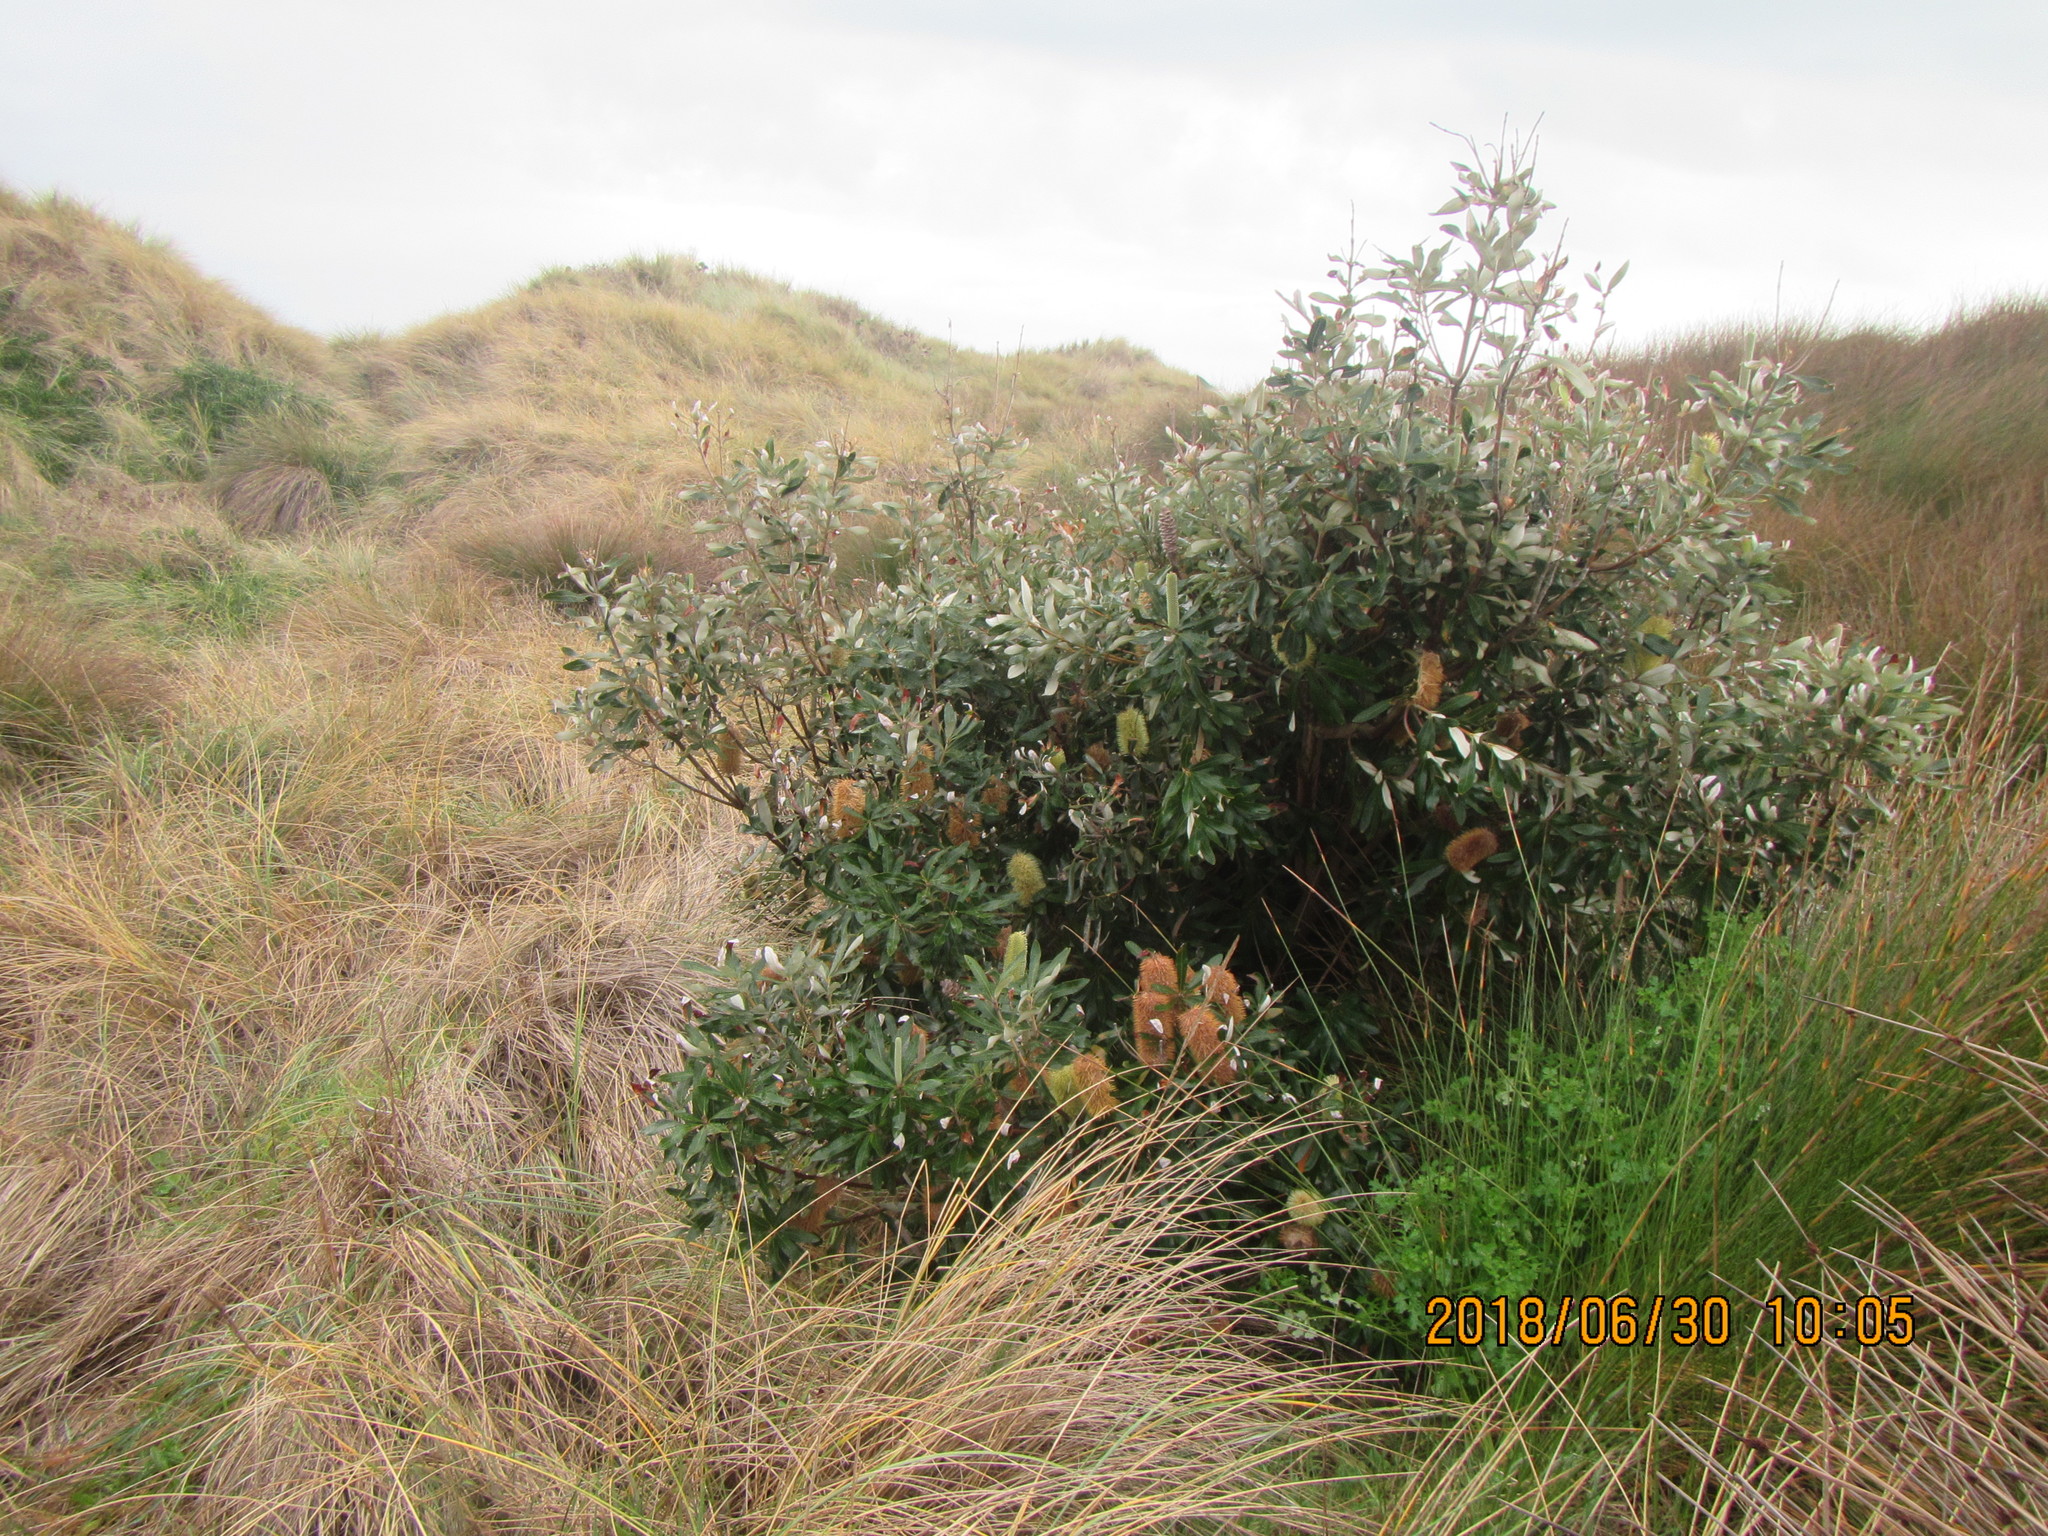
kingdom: Plantae
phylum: Tracheophyta
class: Magnoliopsida
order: Proteales
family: Proteaceae
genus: Banksia
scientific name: Banksia integrifolia
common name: White-honeysuckle
